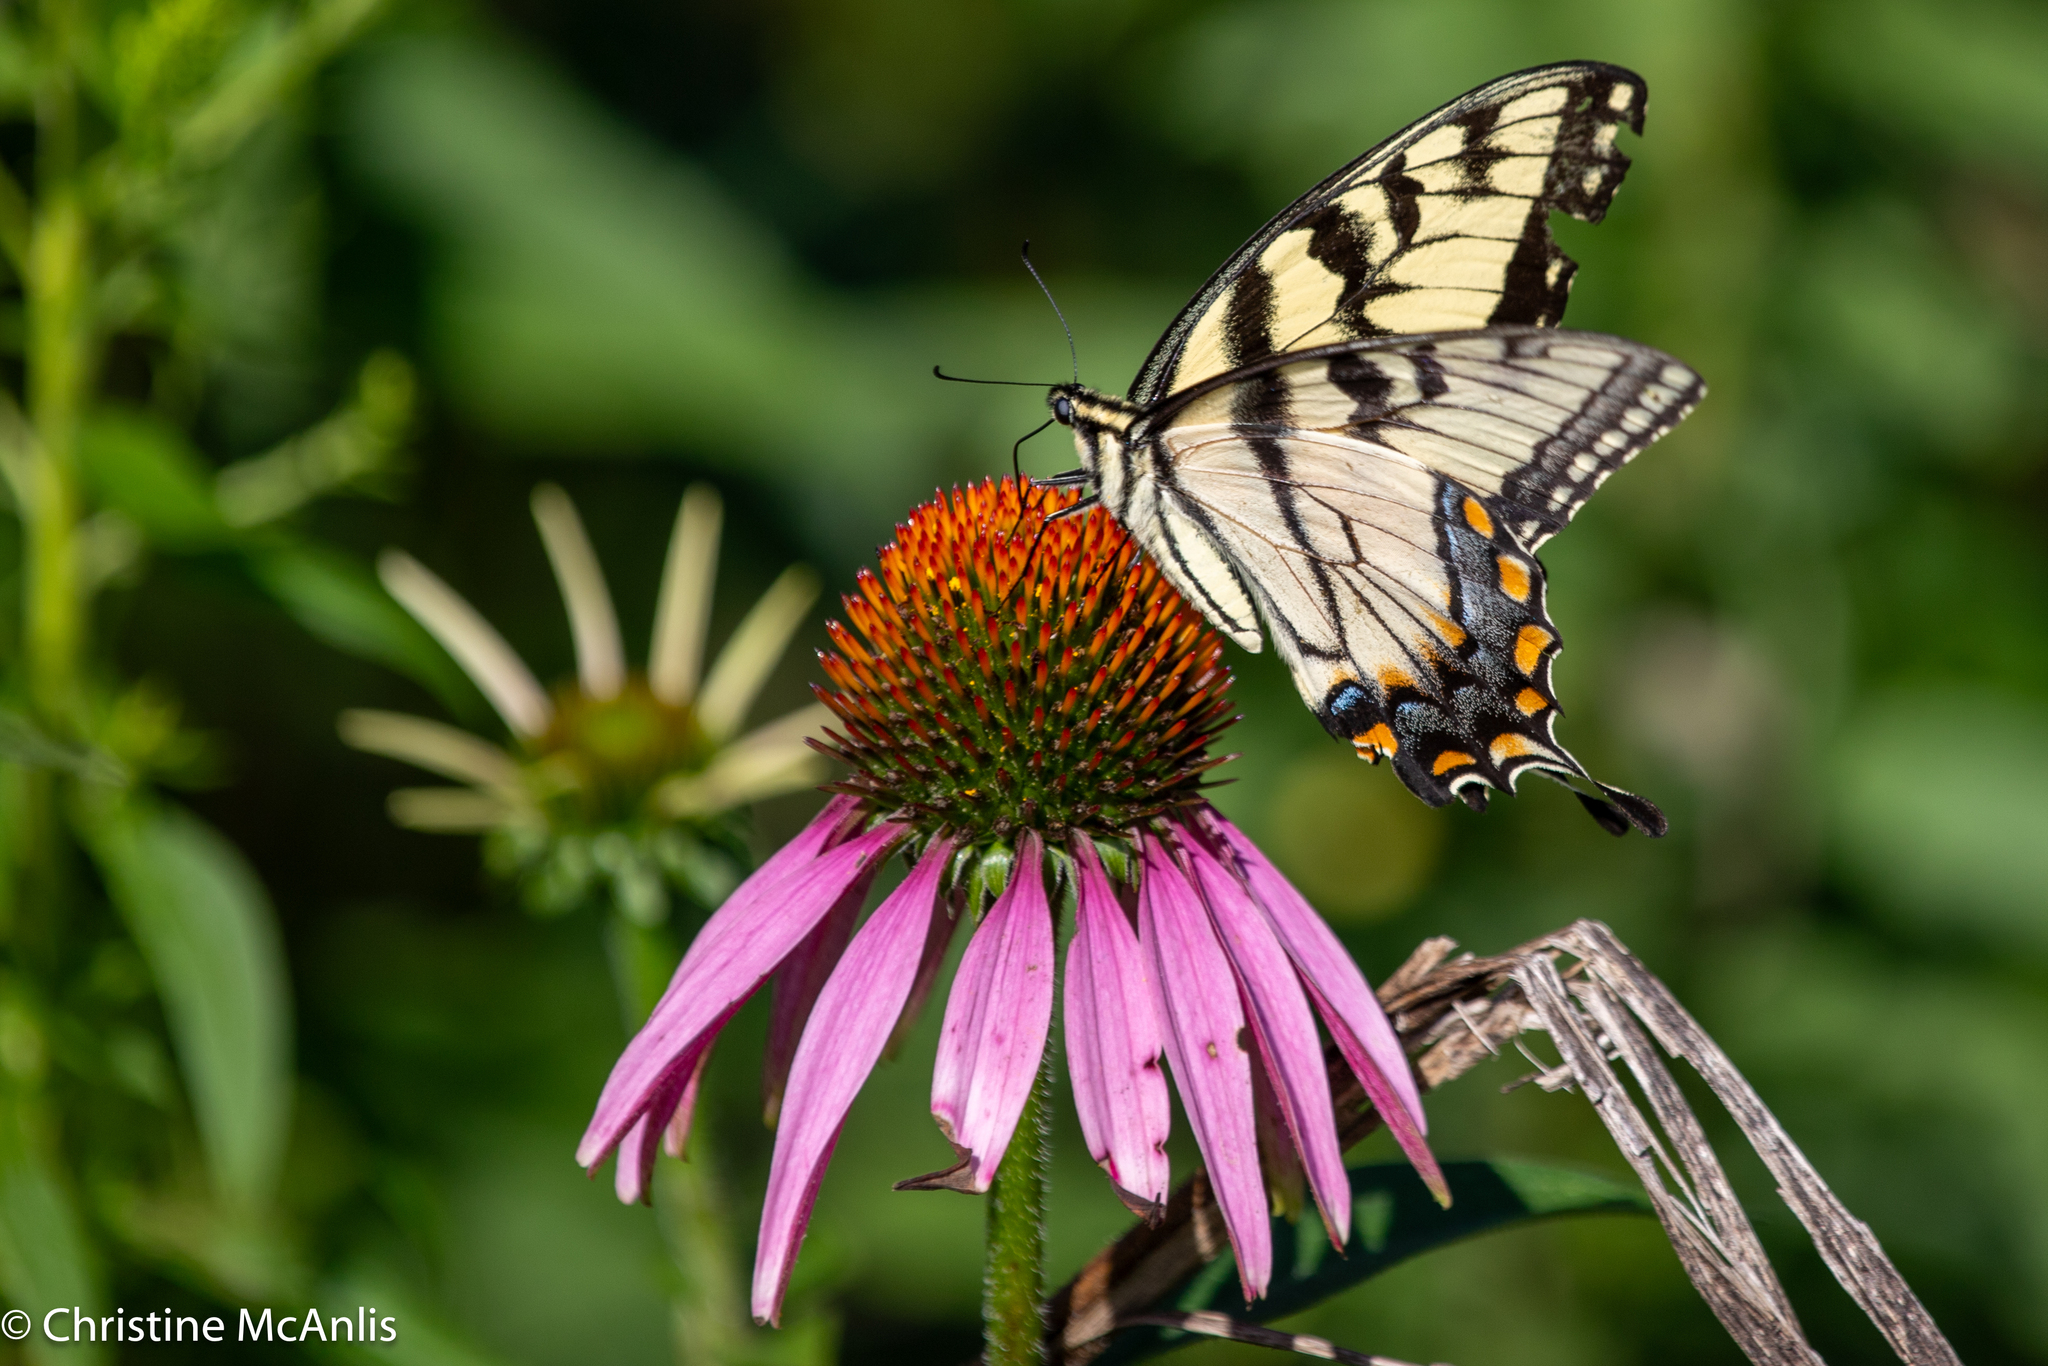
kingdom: Animalia
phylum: Arthropoda
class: Insecta
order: Lepidoptera
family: Papilionidae
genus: Papilio
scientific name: Papilio glaucus
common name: Tiger swallowtail
